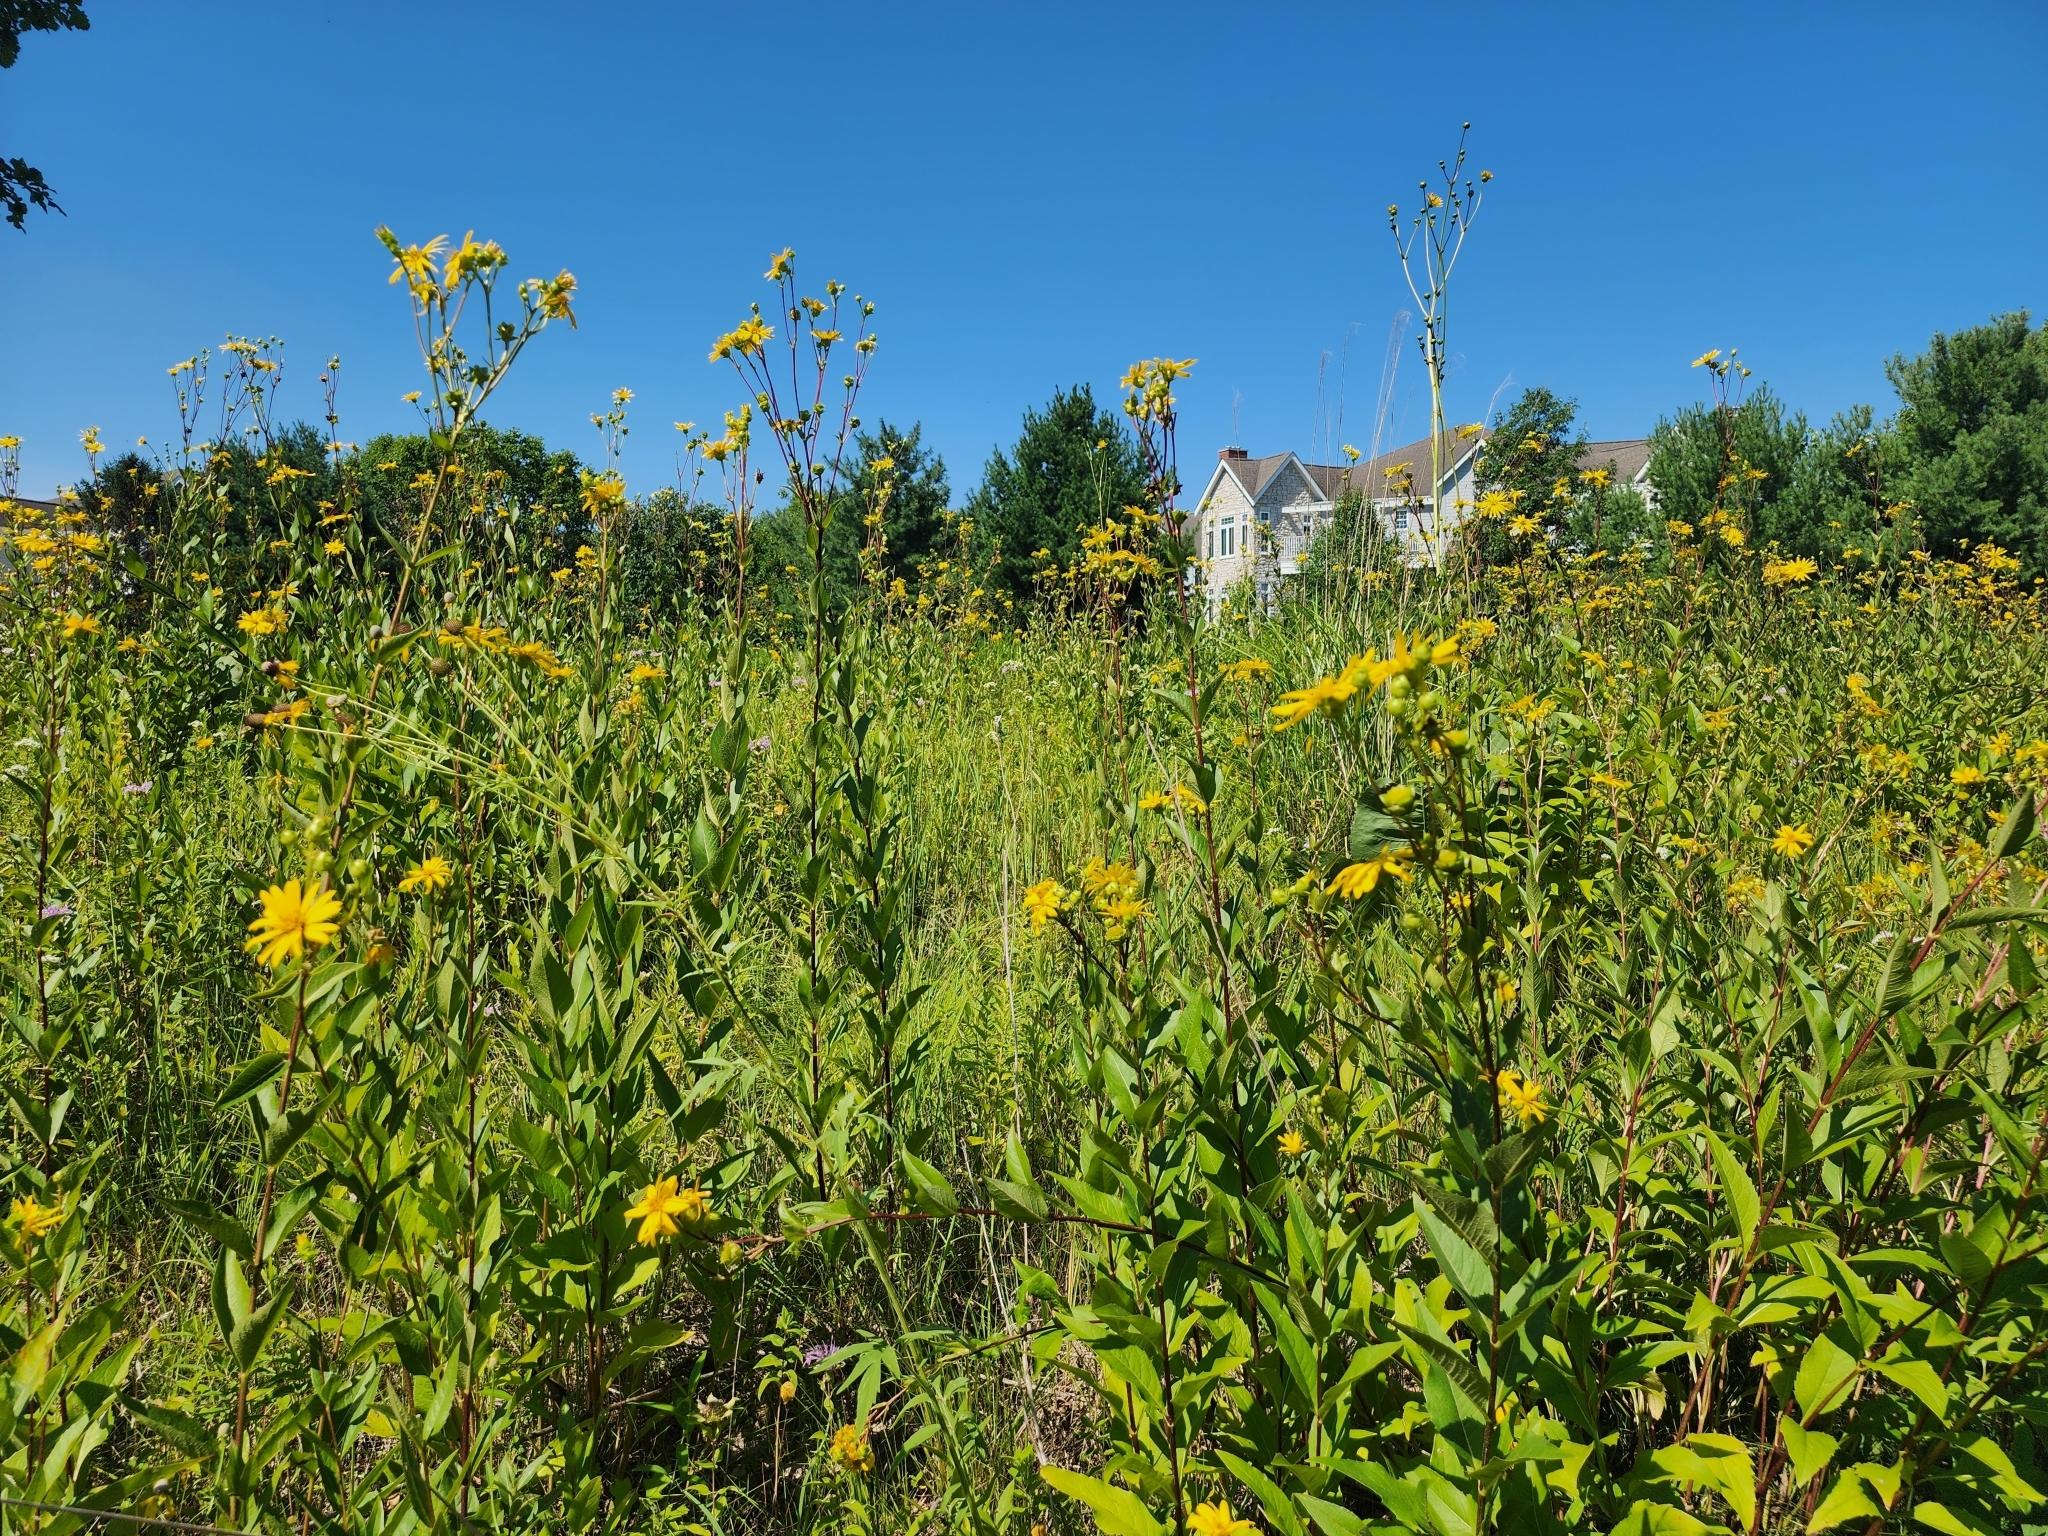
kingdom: Plantae
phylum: Tracheophyta
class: Magnoliopsida
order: Asterales
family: Asteraceae
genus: Silphium
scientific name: Silphium integrifolium
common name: Whole-leaf rosinweed
